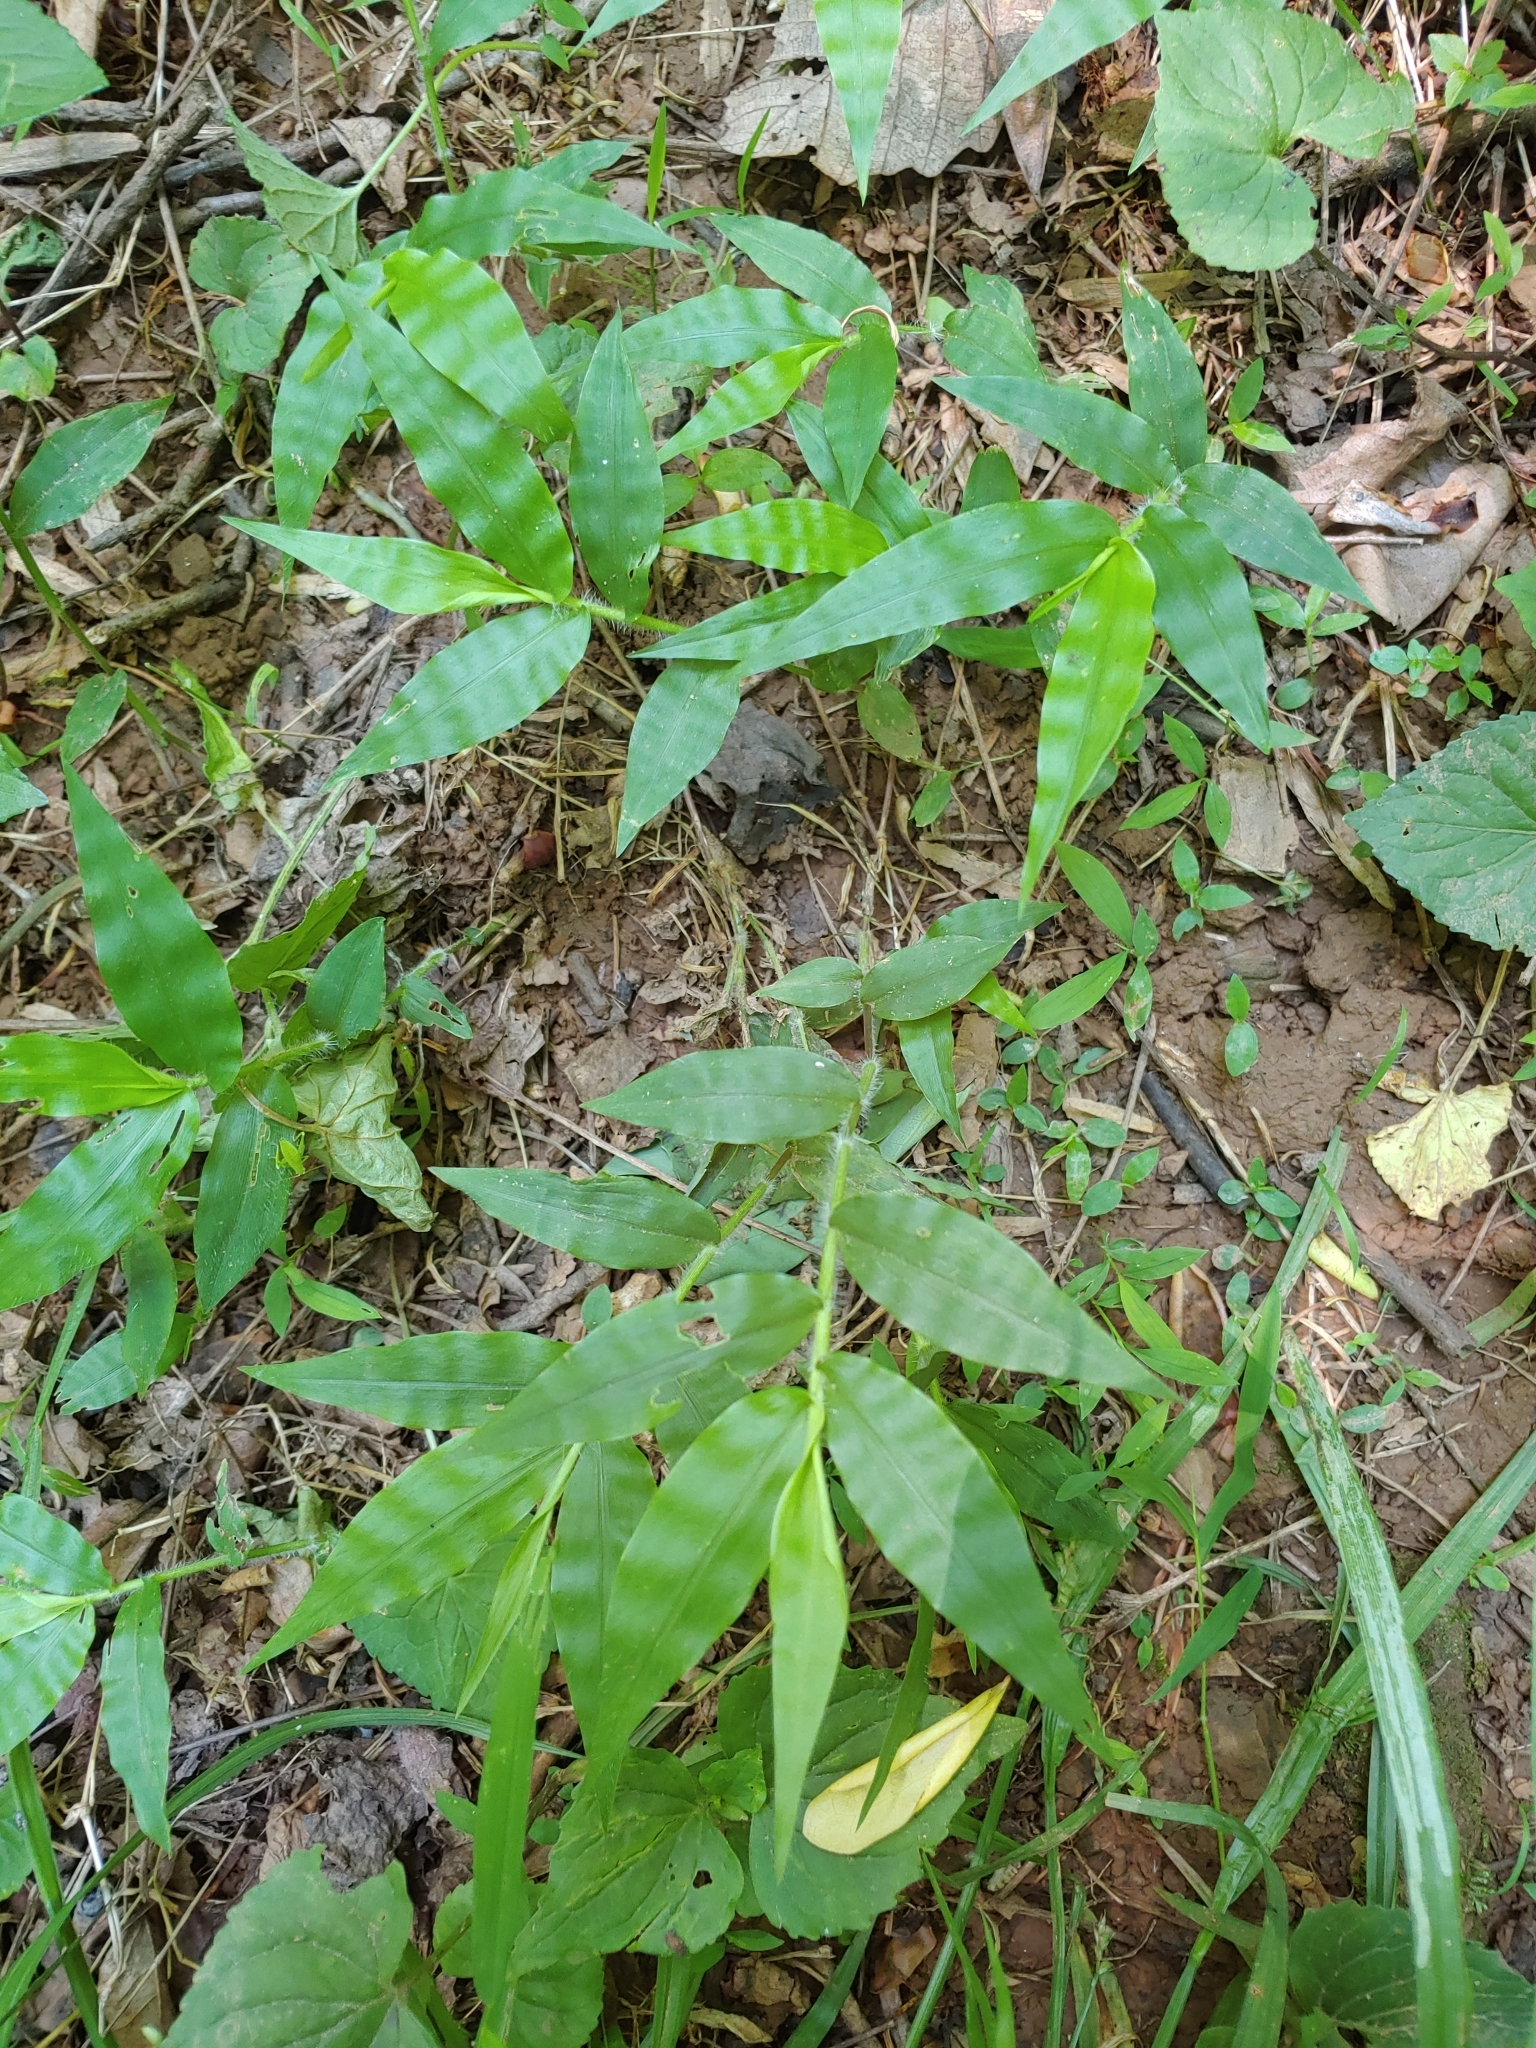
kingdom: Plantae
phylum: Tracheophyta
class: Liliopsida
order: Poales
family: Poaceae
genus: Oplismenus
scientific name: Oplismenus undulatifolius
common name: Wavyleaf basketgrass
